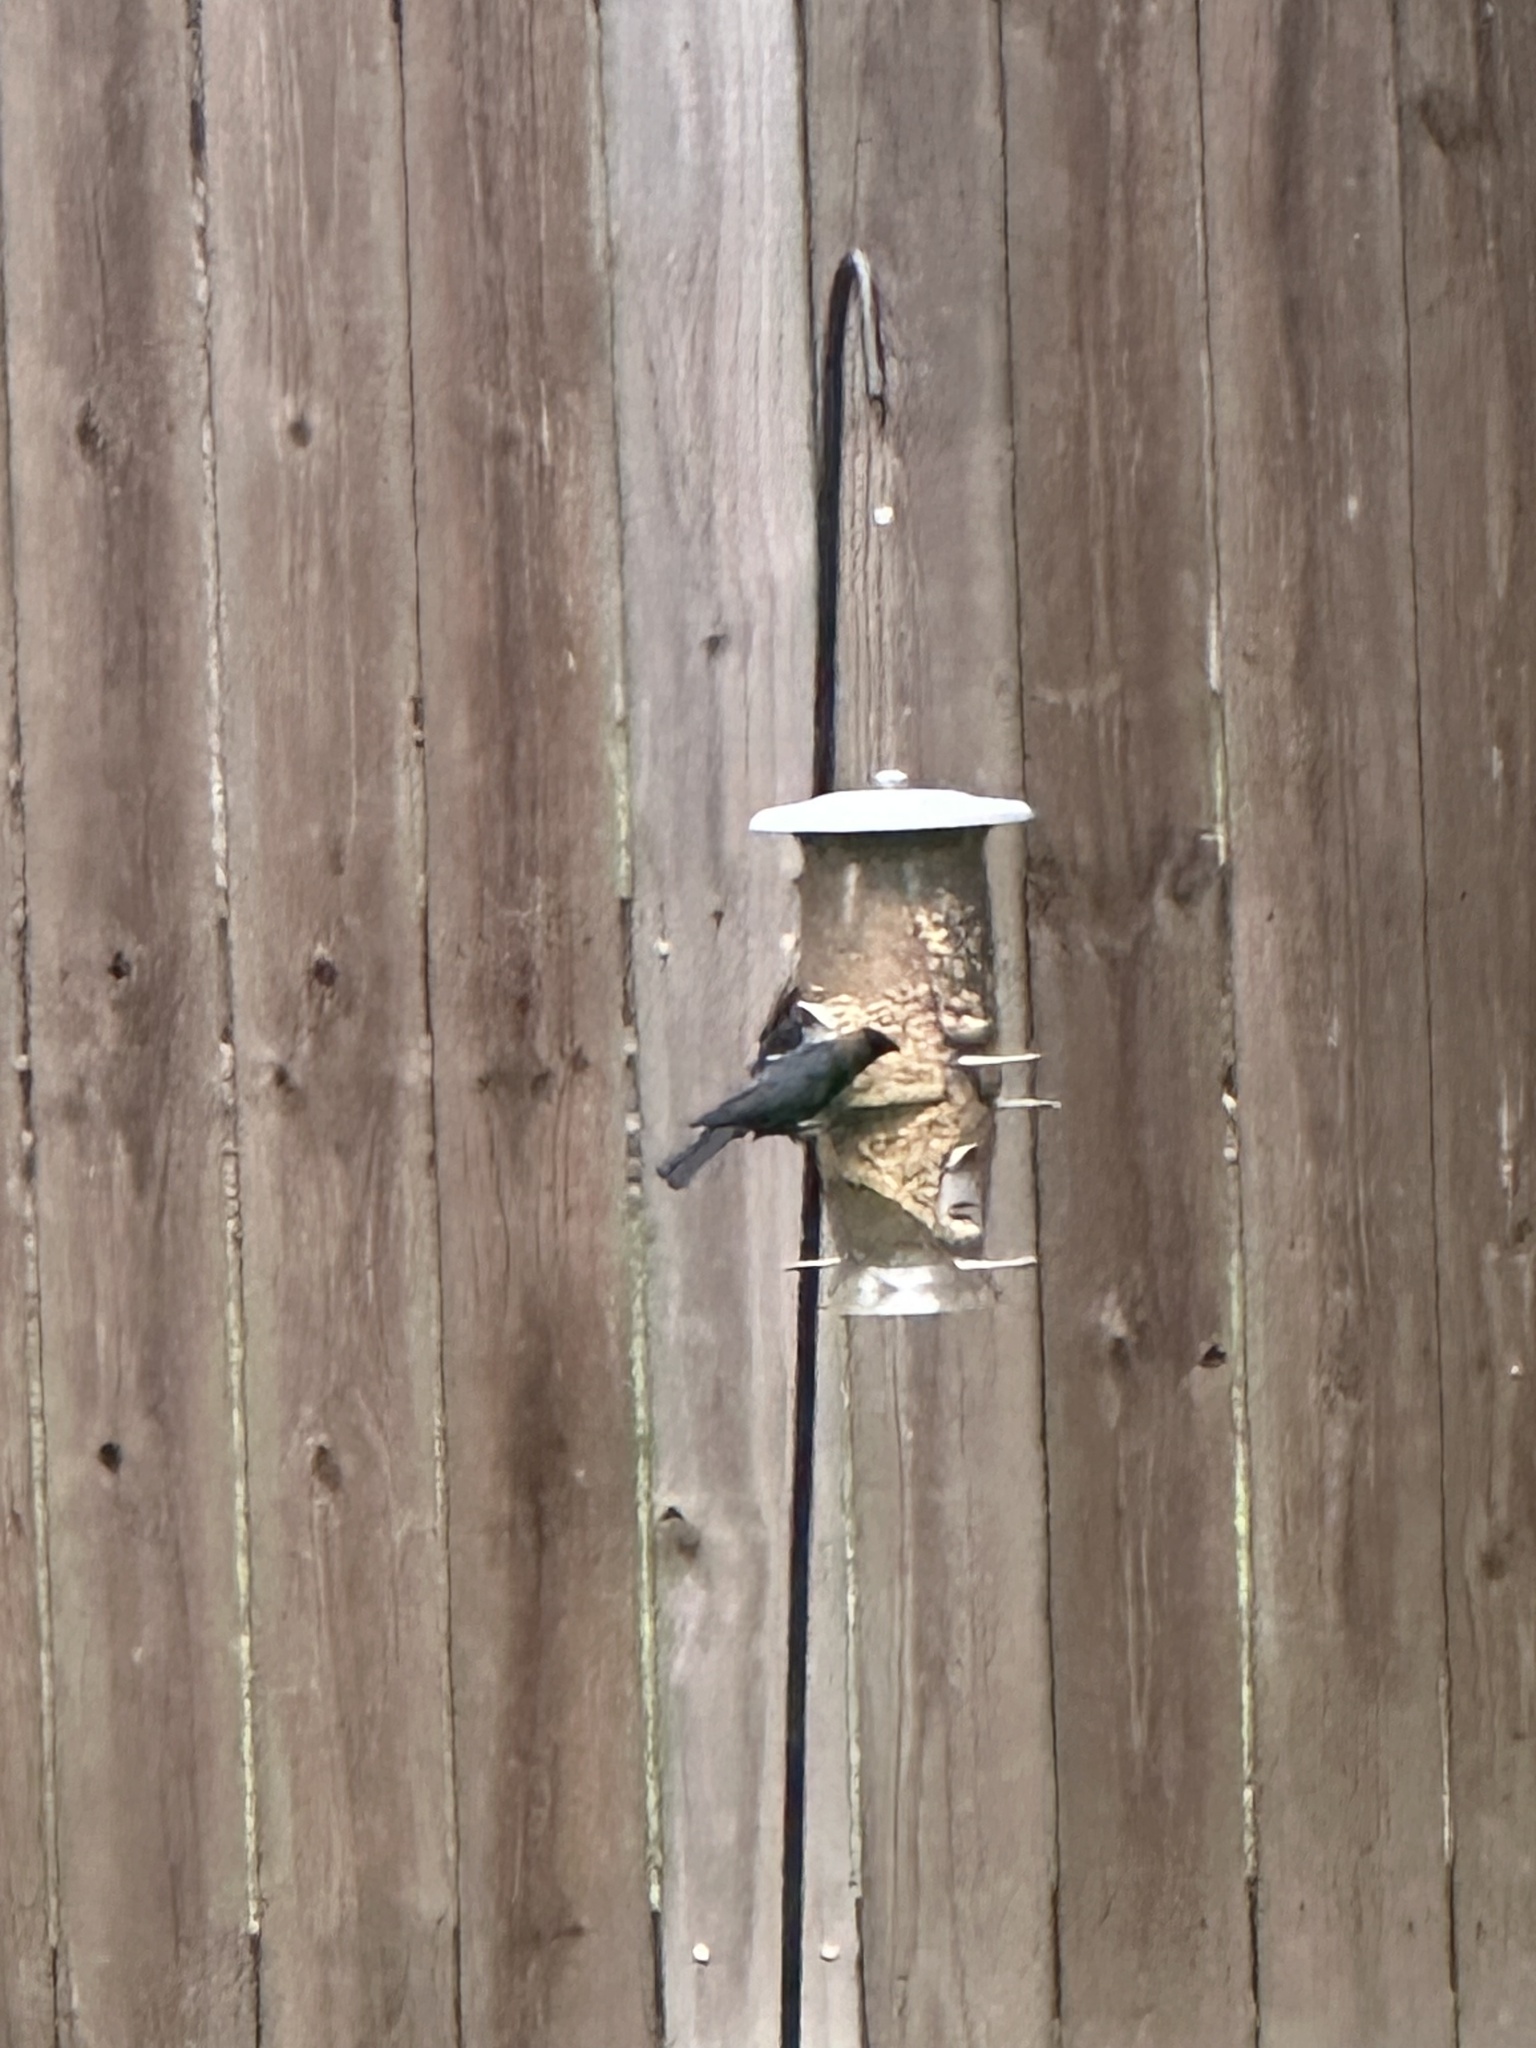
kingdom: Animalia
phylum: Chordata
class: Aves
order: Passeriformes
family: Icteridae
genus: Molothrus
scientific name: Molothrus ater
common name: Brown-headed cowbird
